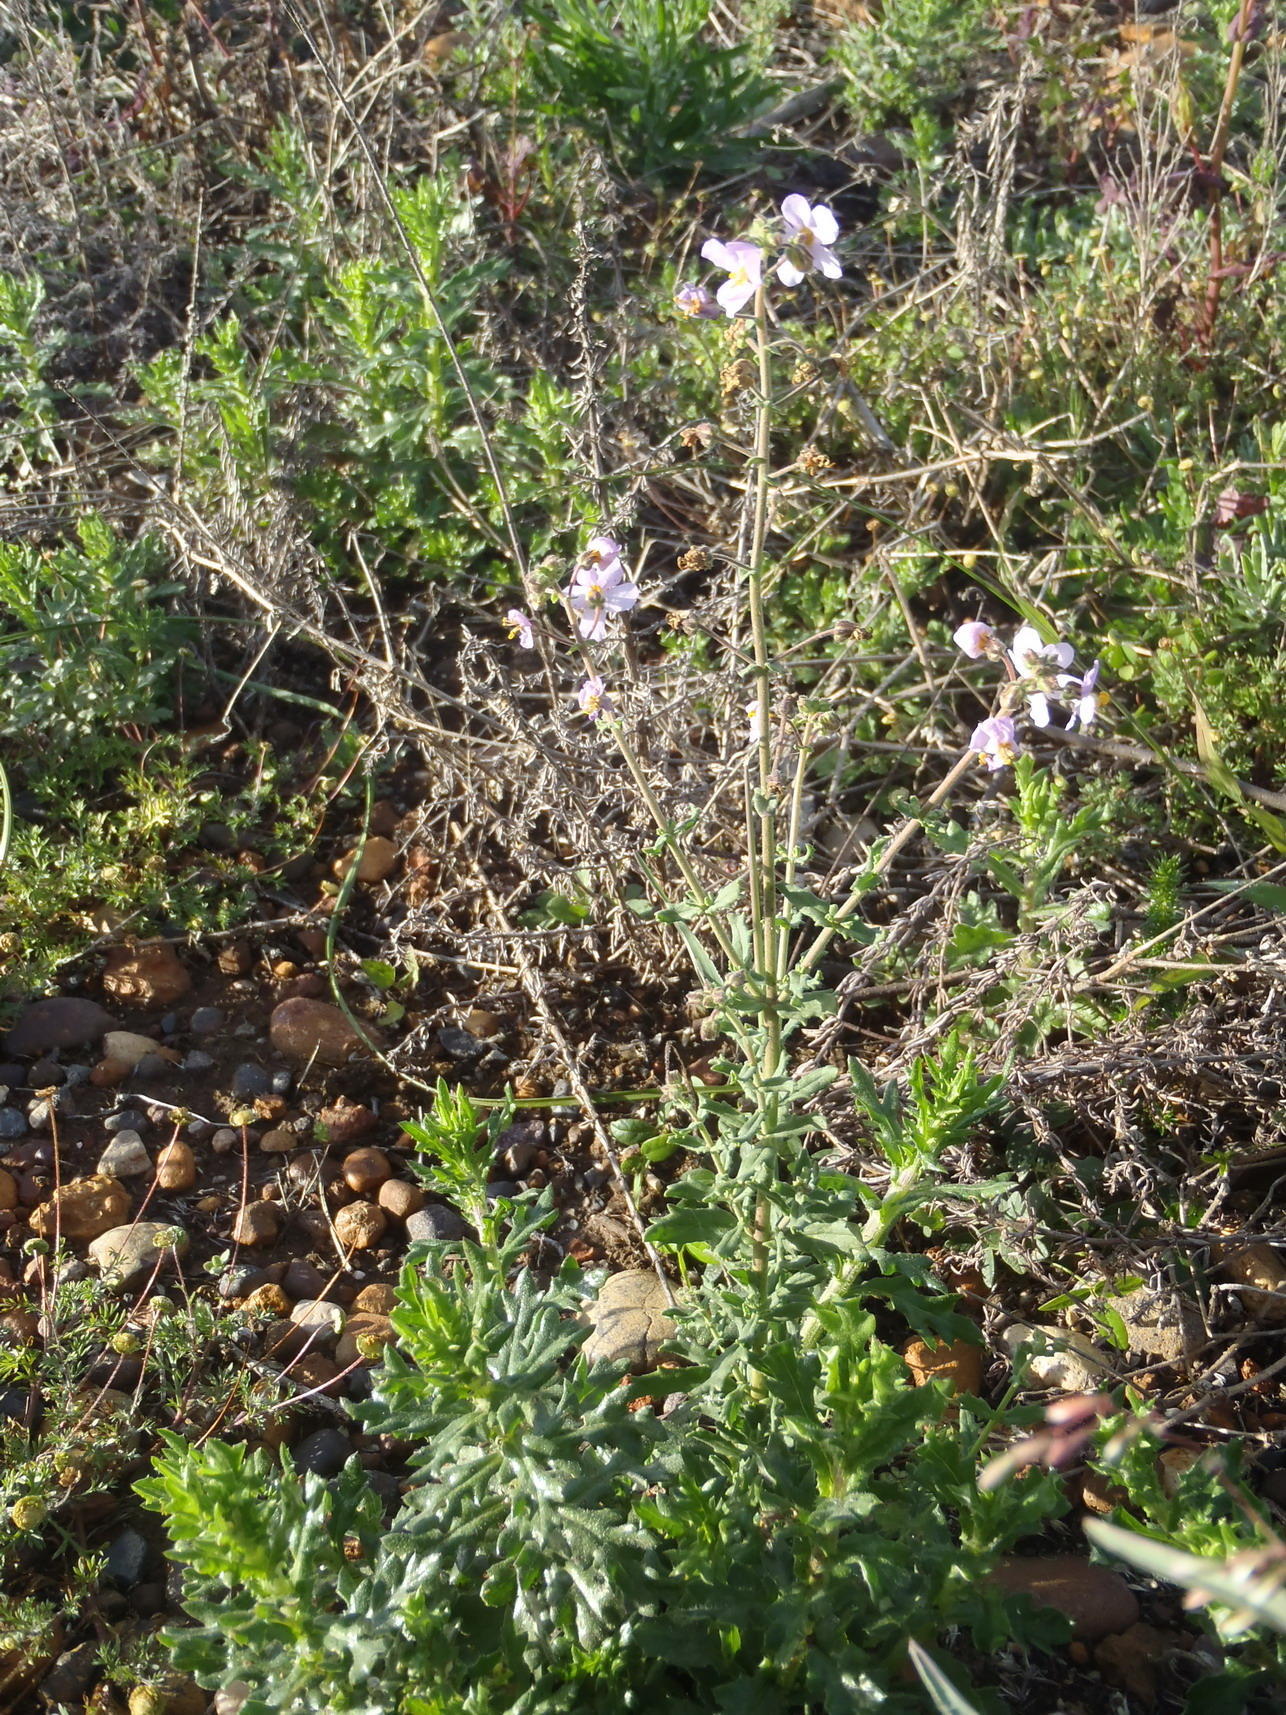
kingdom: Plantae
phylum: Tracheophyta
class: Magnoliopsida
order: Lamiales
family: Scrophulariaceae
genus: Chaenostoma
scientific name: Chaenostoma caeruleum
